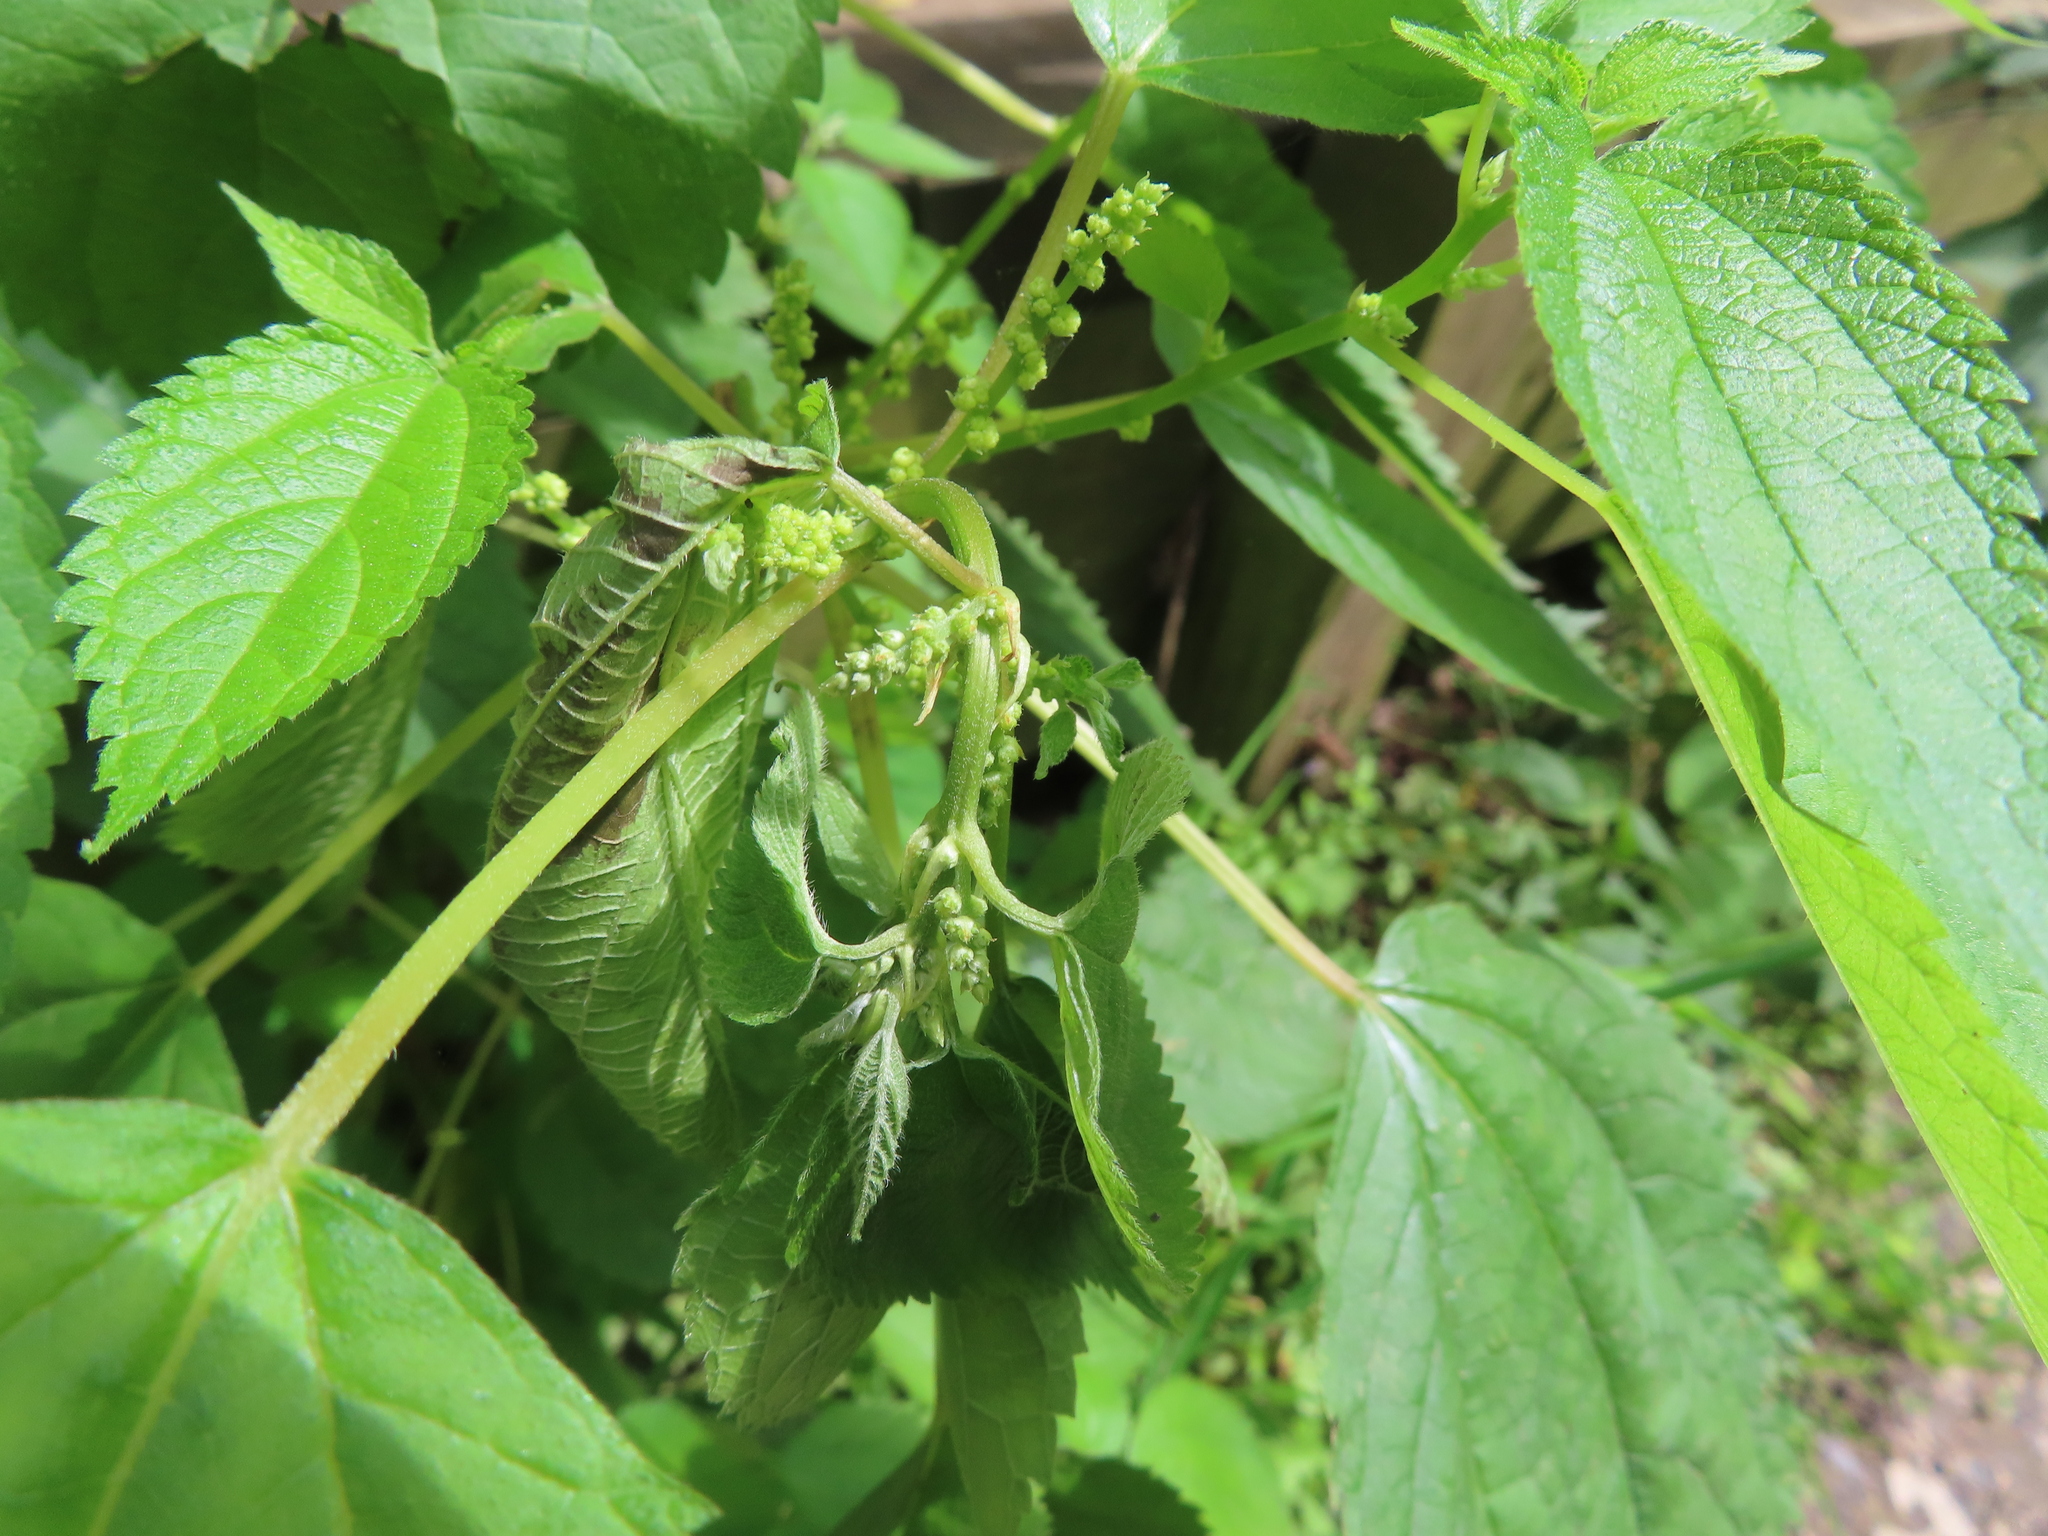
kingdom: Plantae
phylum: Tracheophyta
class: Magnoliopsida
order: Rosales
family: Urticaceae
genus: Boehmeria
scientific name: Boehmeria cylindrica
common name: Bog-hemp
